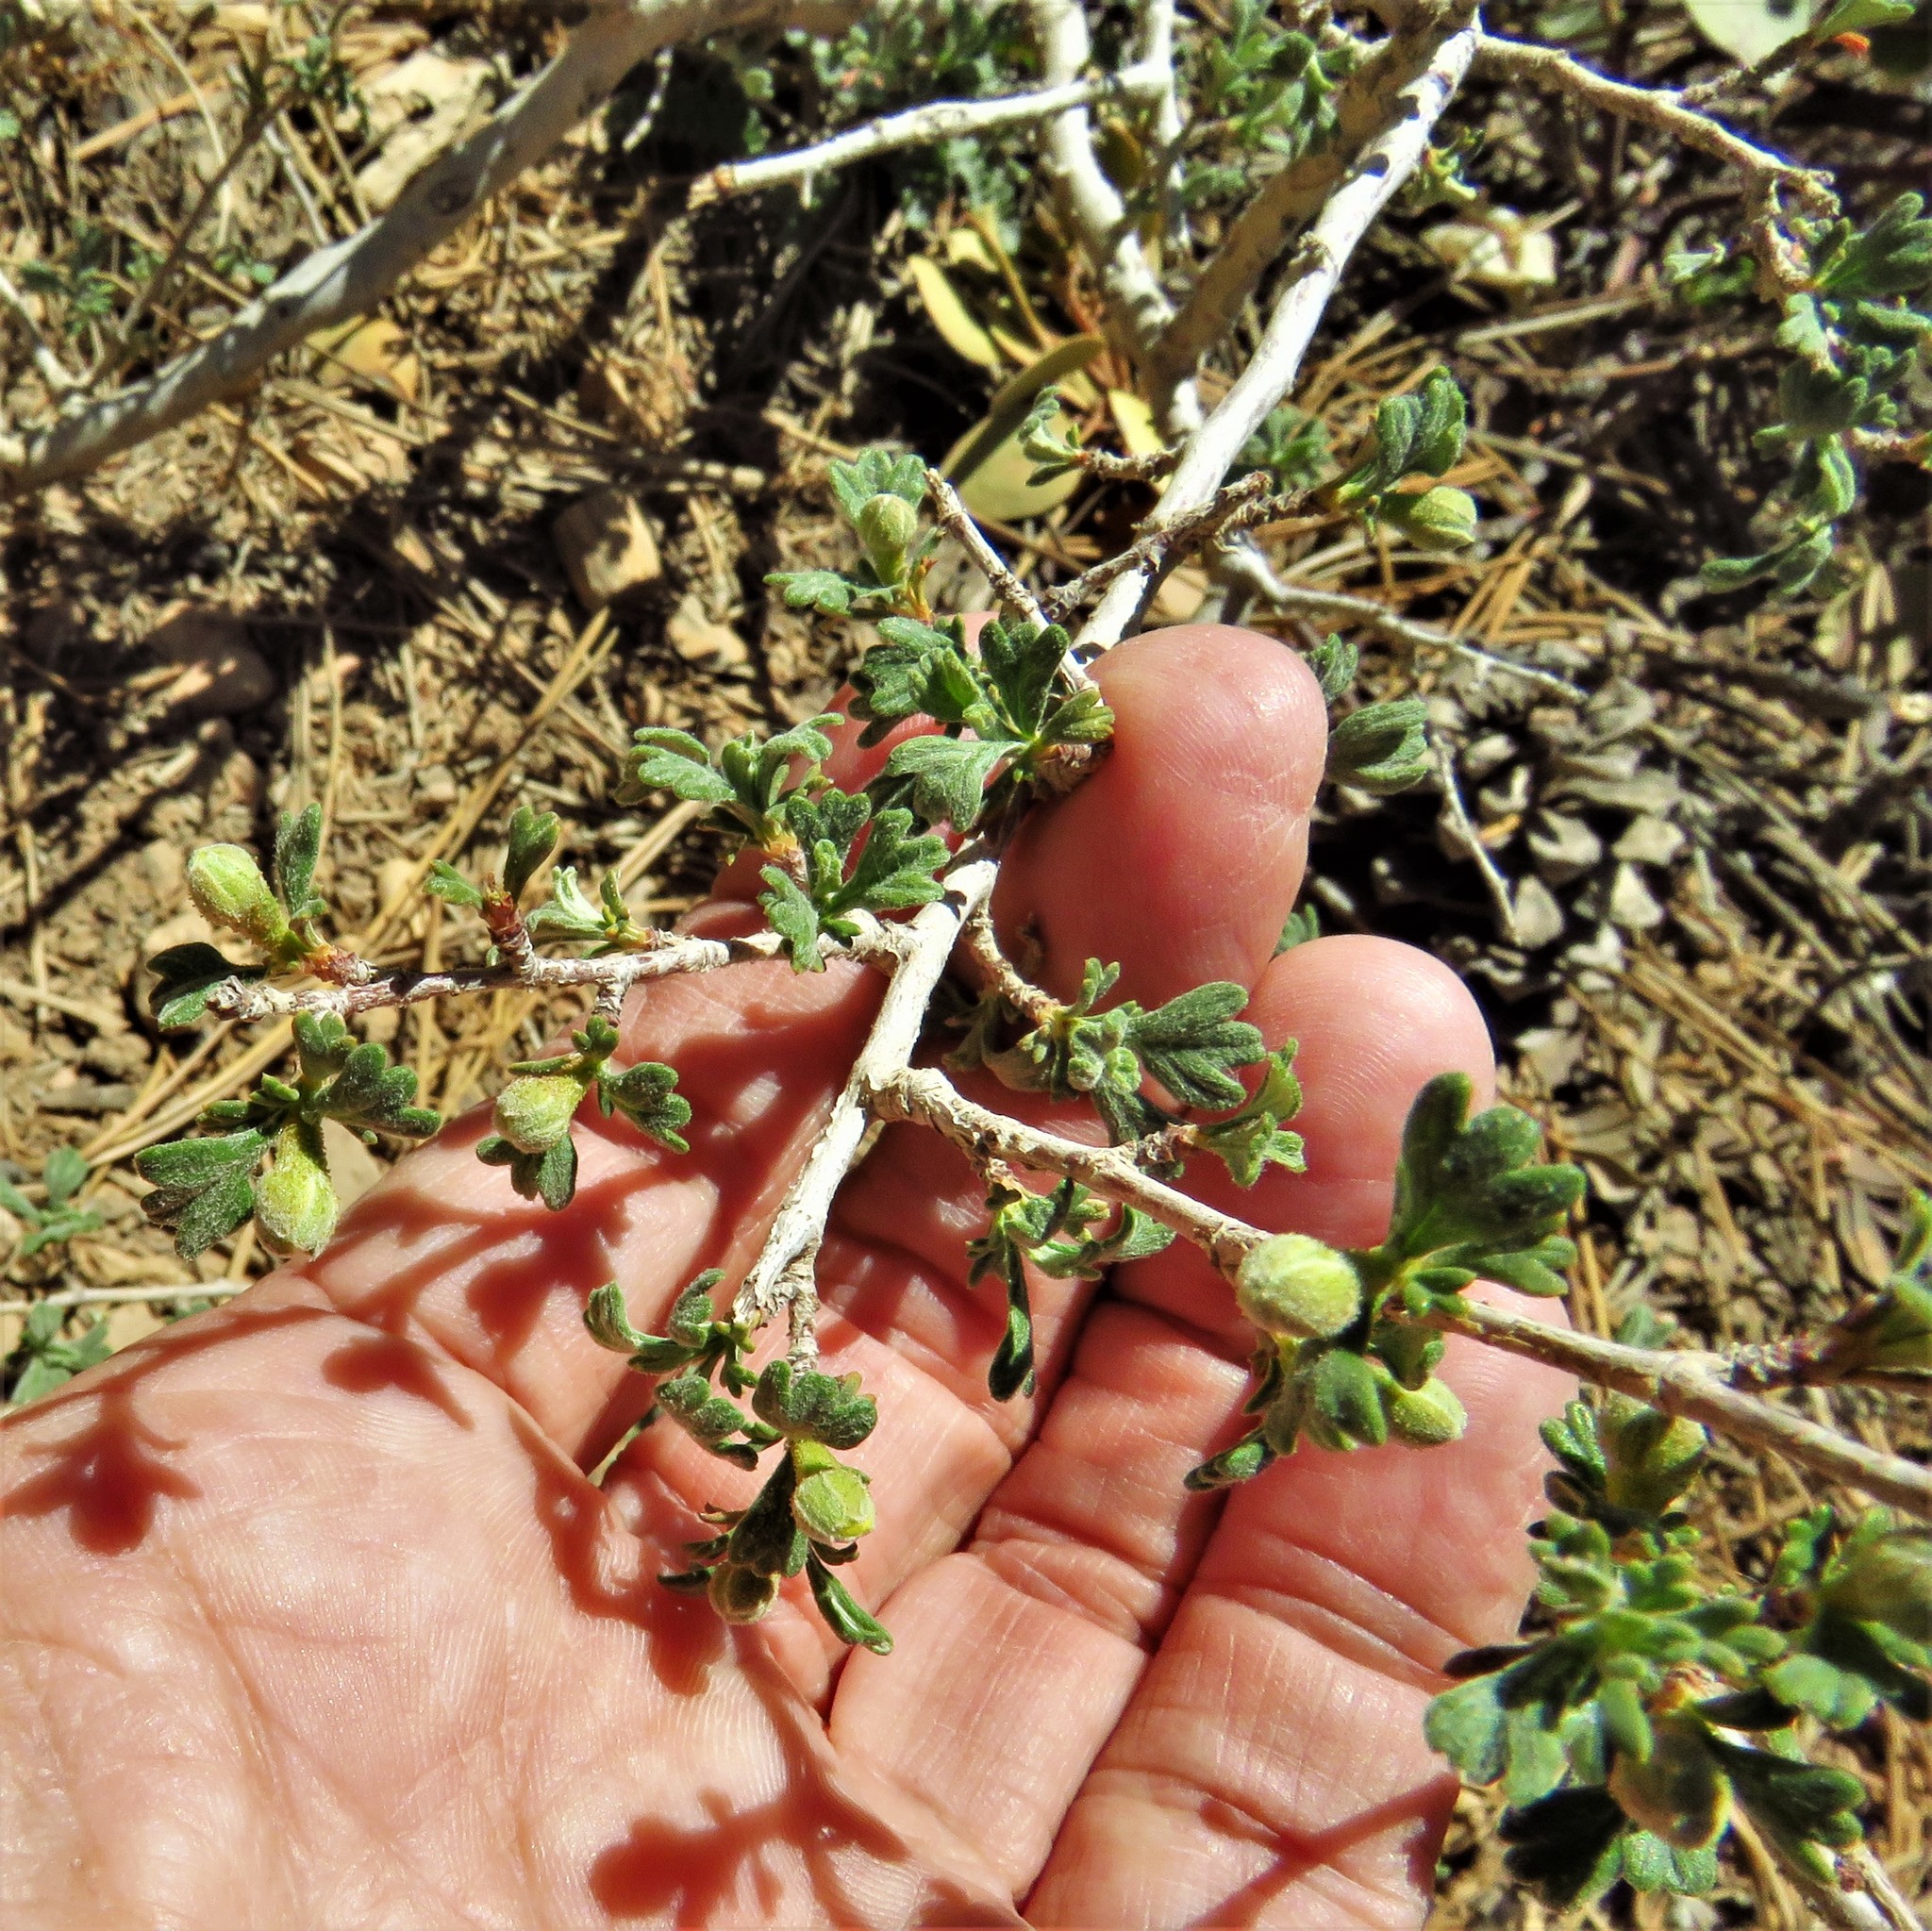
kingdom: Plantae
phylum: Tracheophyta
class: Magnoliopsida
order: Rosales
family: Rosaceae
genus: Purshia
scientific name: Purshia tridentata
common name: Antelope bitterbrush
